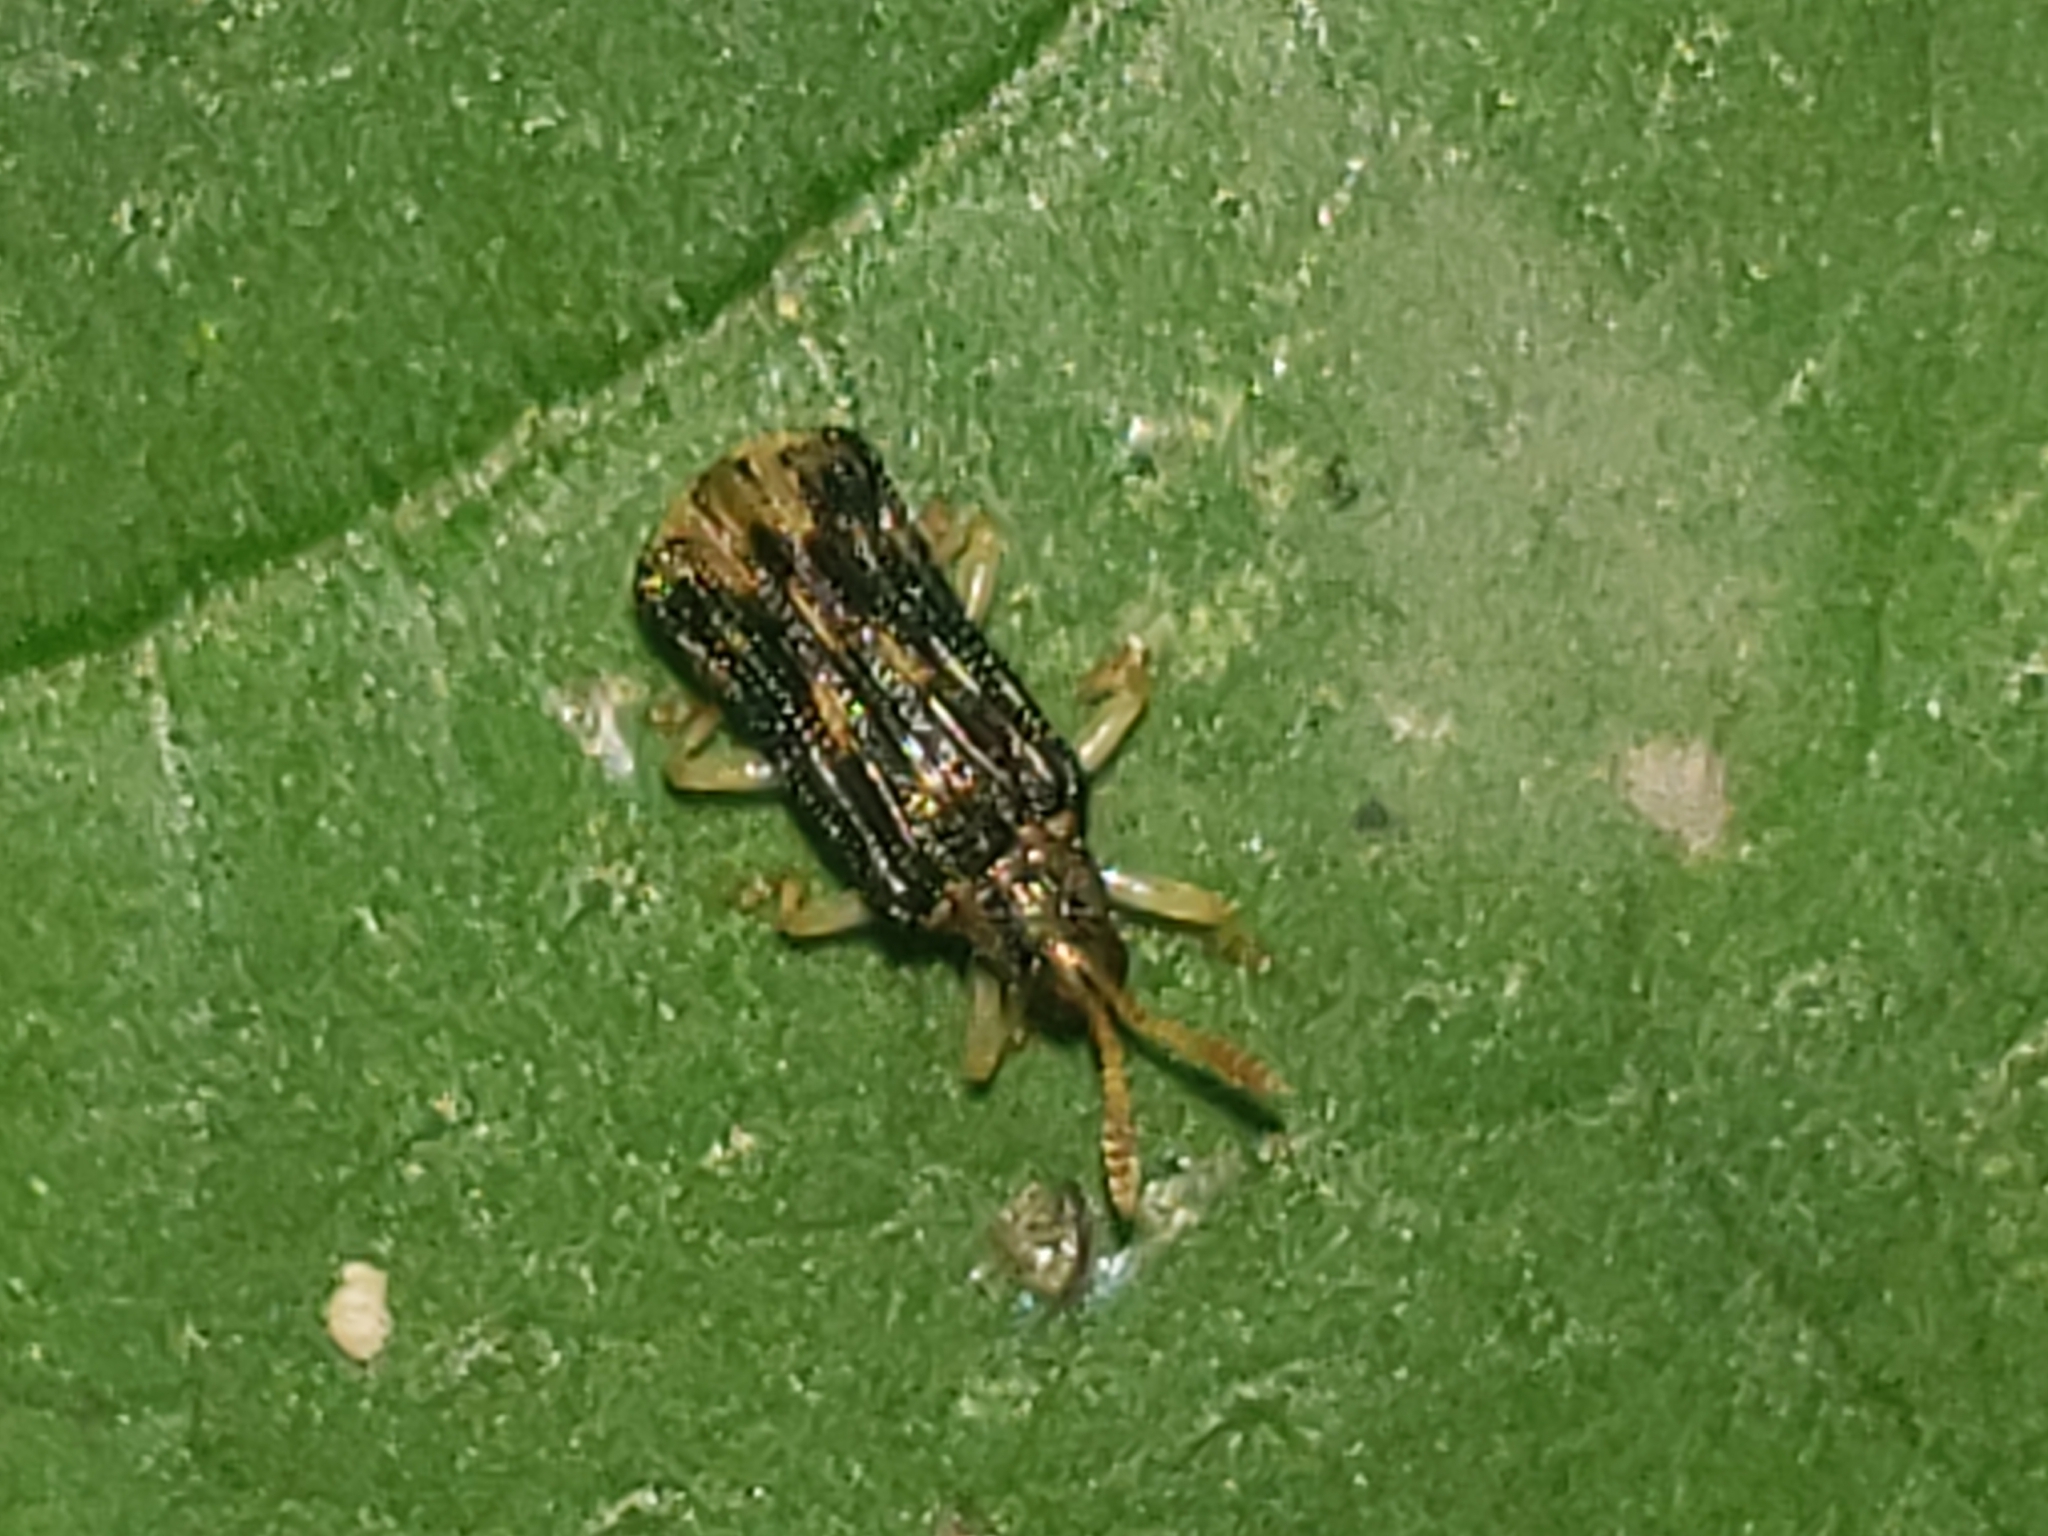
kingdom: Animalia
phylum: Arthropoda
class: Insecta
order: Coleoptera
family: Chrysomelidae
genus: Sumitrosis
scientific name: Sumitrosis rosea
